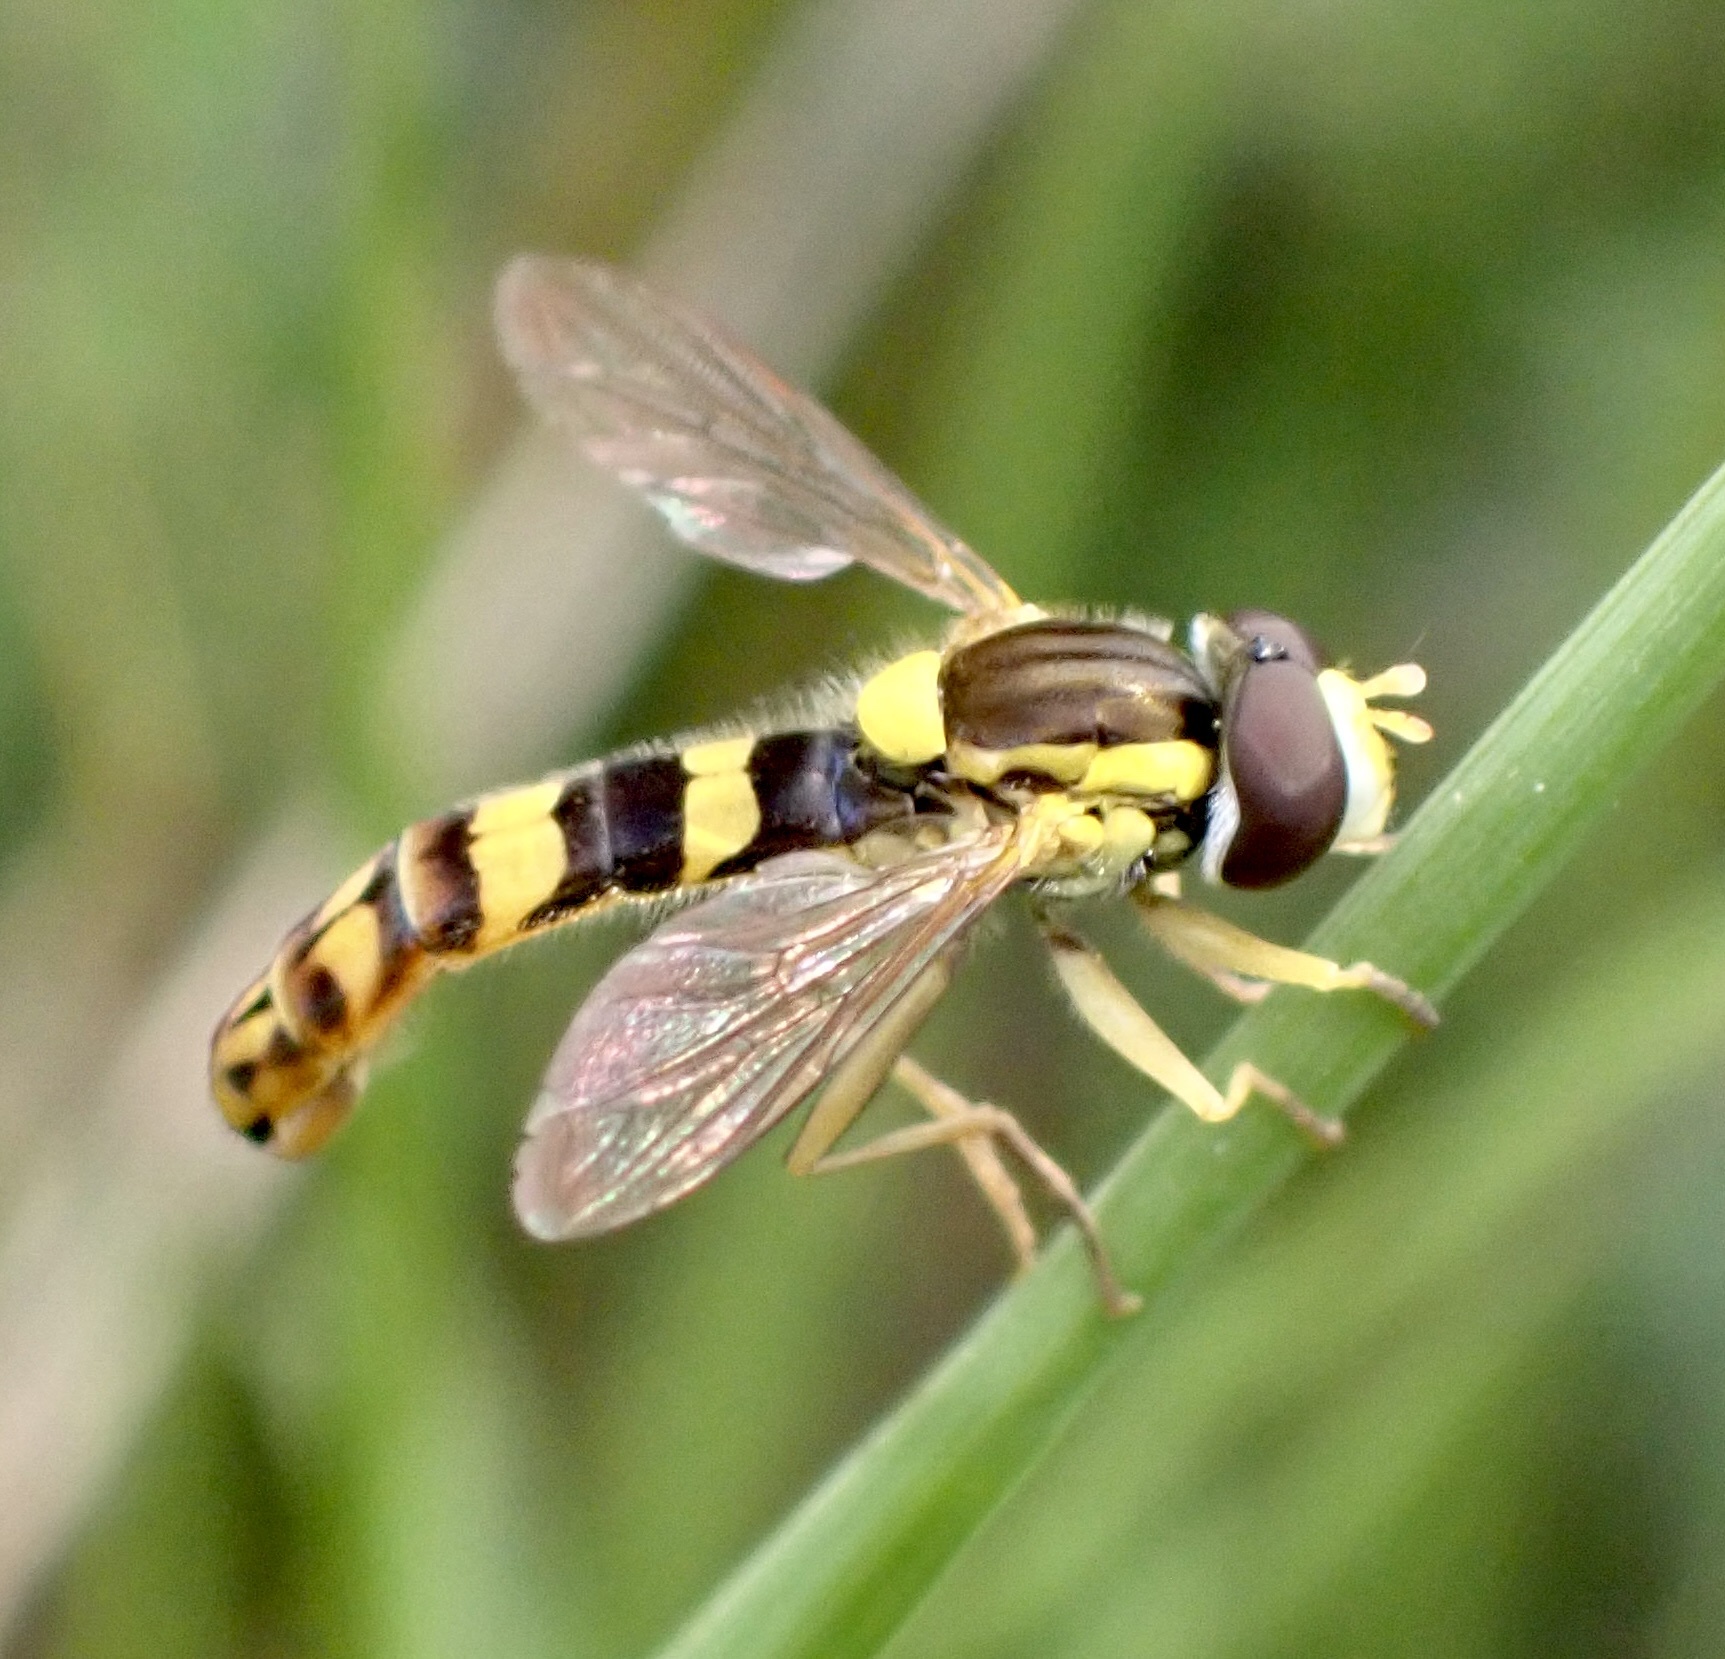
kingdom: Animalia
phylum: Arthropoda
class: Insecta
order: Diptera
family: Syrphidae
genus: Sphaerophoria
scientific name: Sphaerophoria scripta
